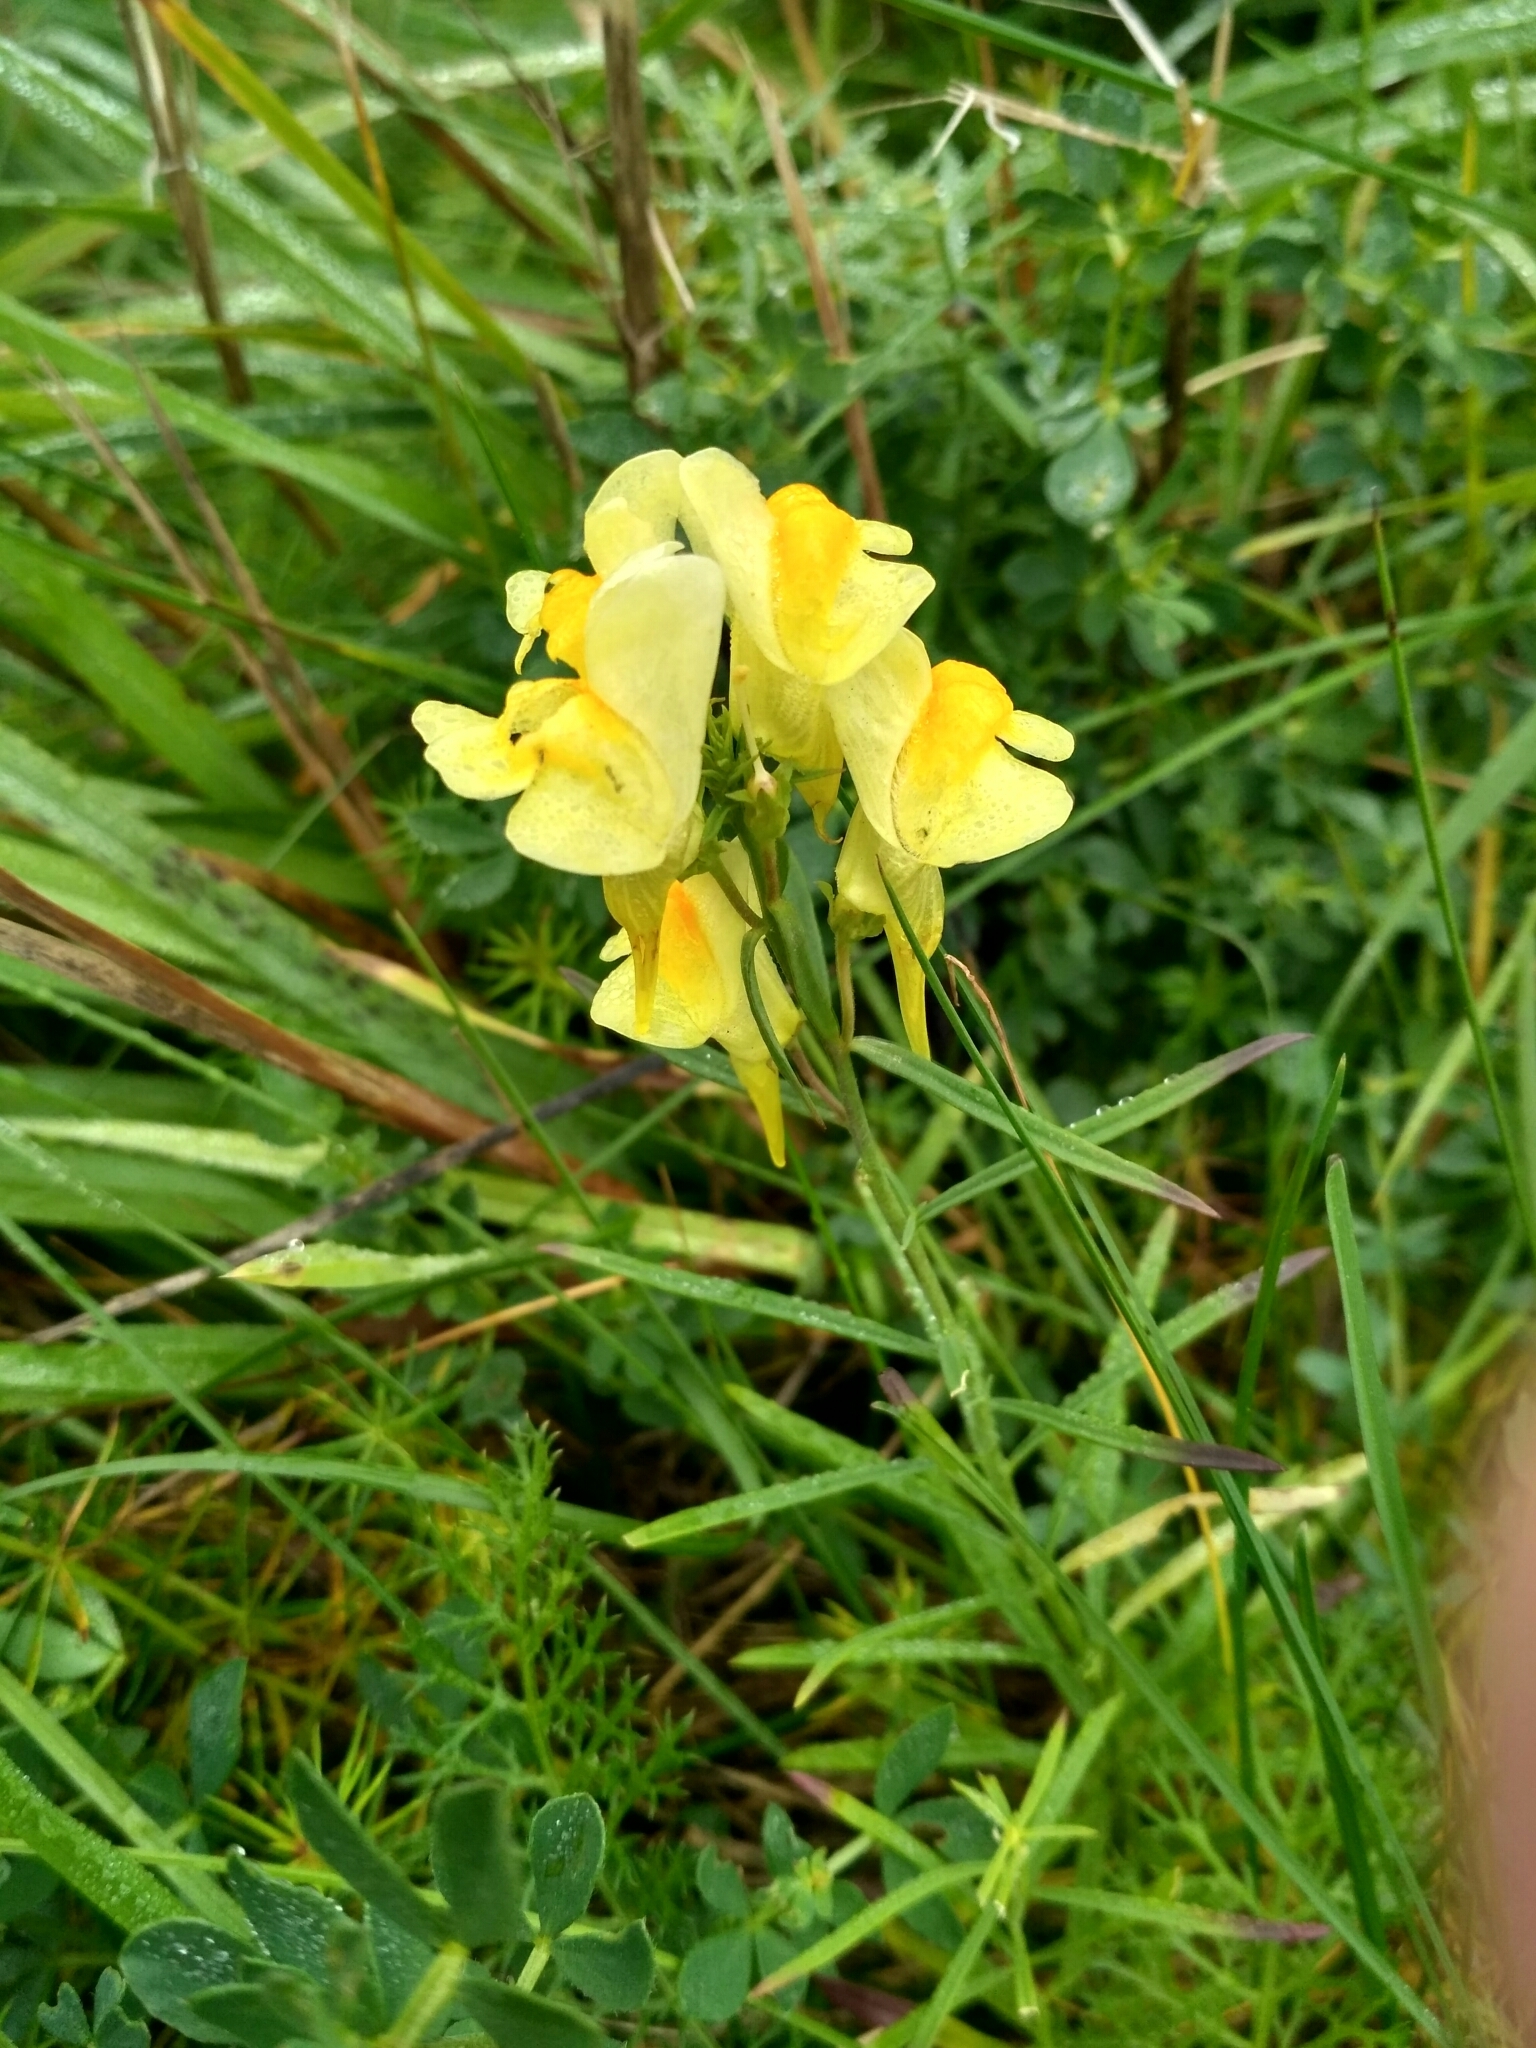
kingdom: Plantae
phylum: Tracheophyta
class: Magnoliopsida
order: Lamiales
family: Plantaginaceae
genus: Linaria
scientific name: Linaria vulgaris
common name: Butter and eggs
